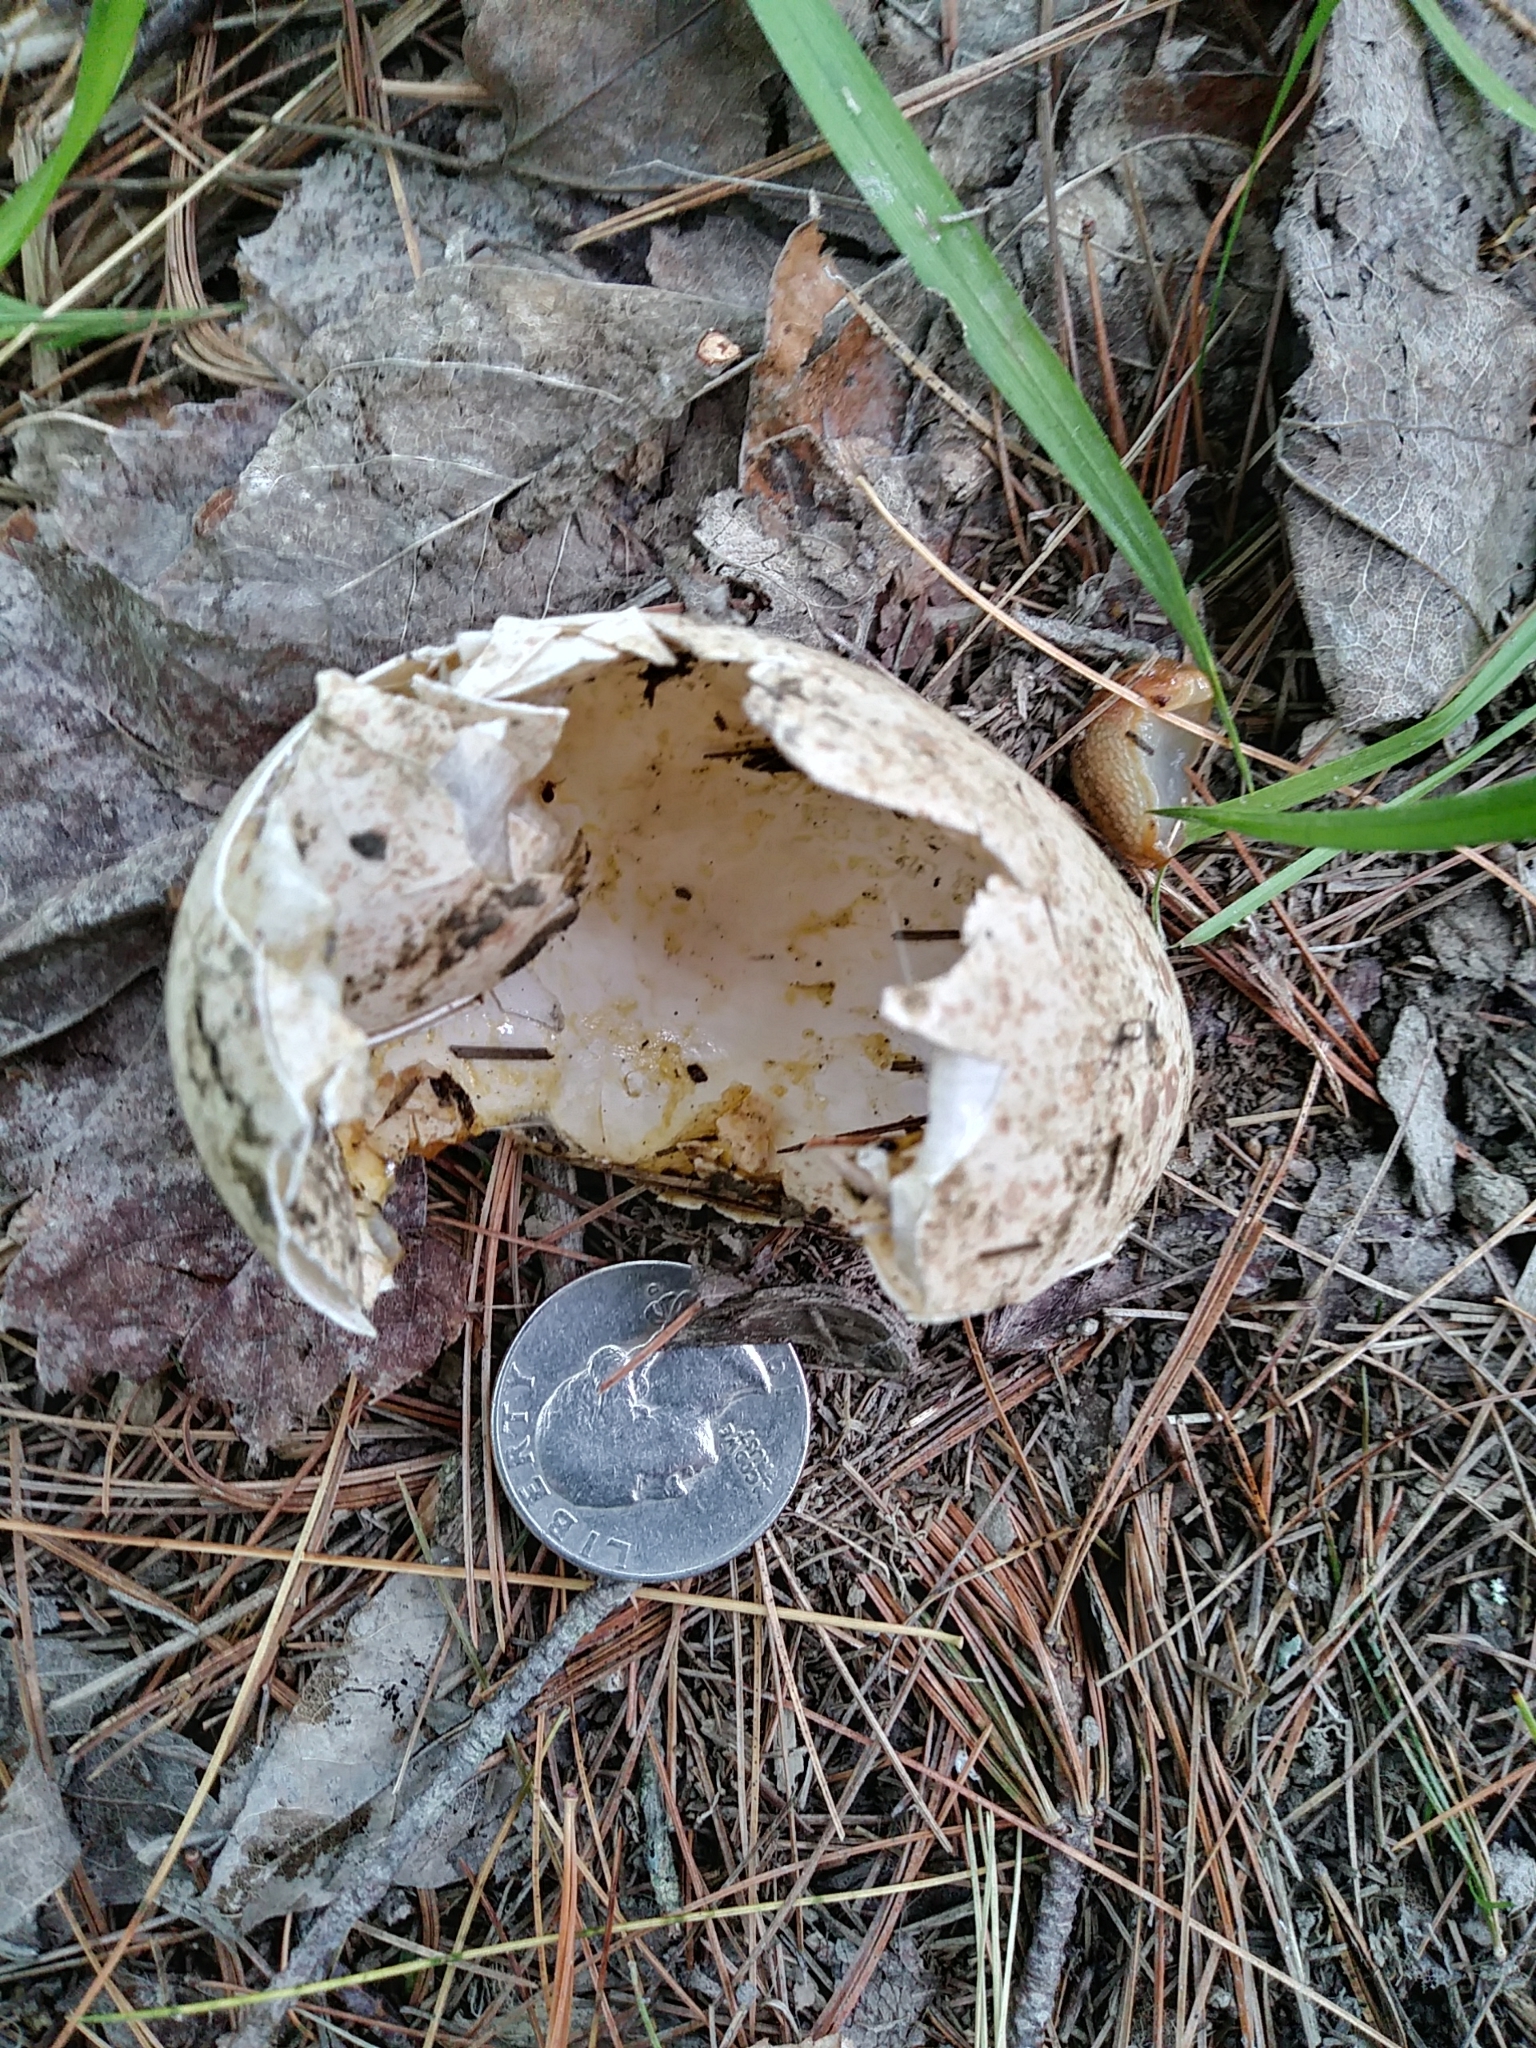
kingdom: Animalia
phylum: Chordata
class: Aves
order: Galliformes
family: Phasianidae
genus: Meleagris
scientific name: Meleagris gallopavo
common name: Wild turkey
